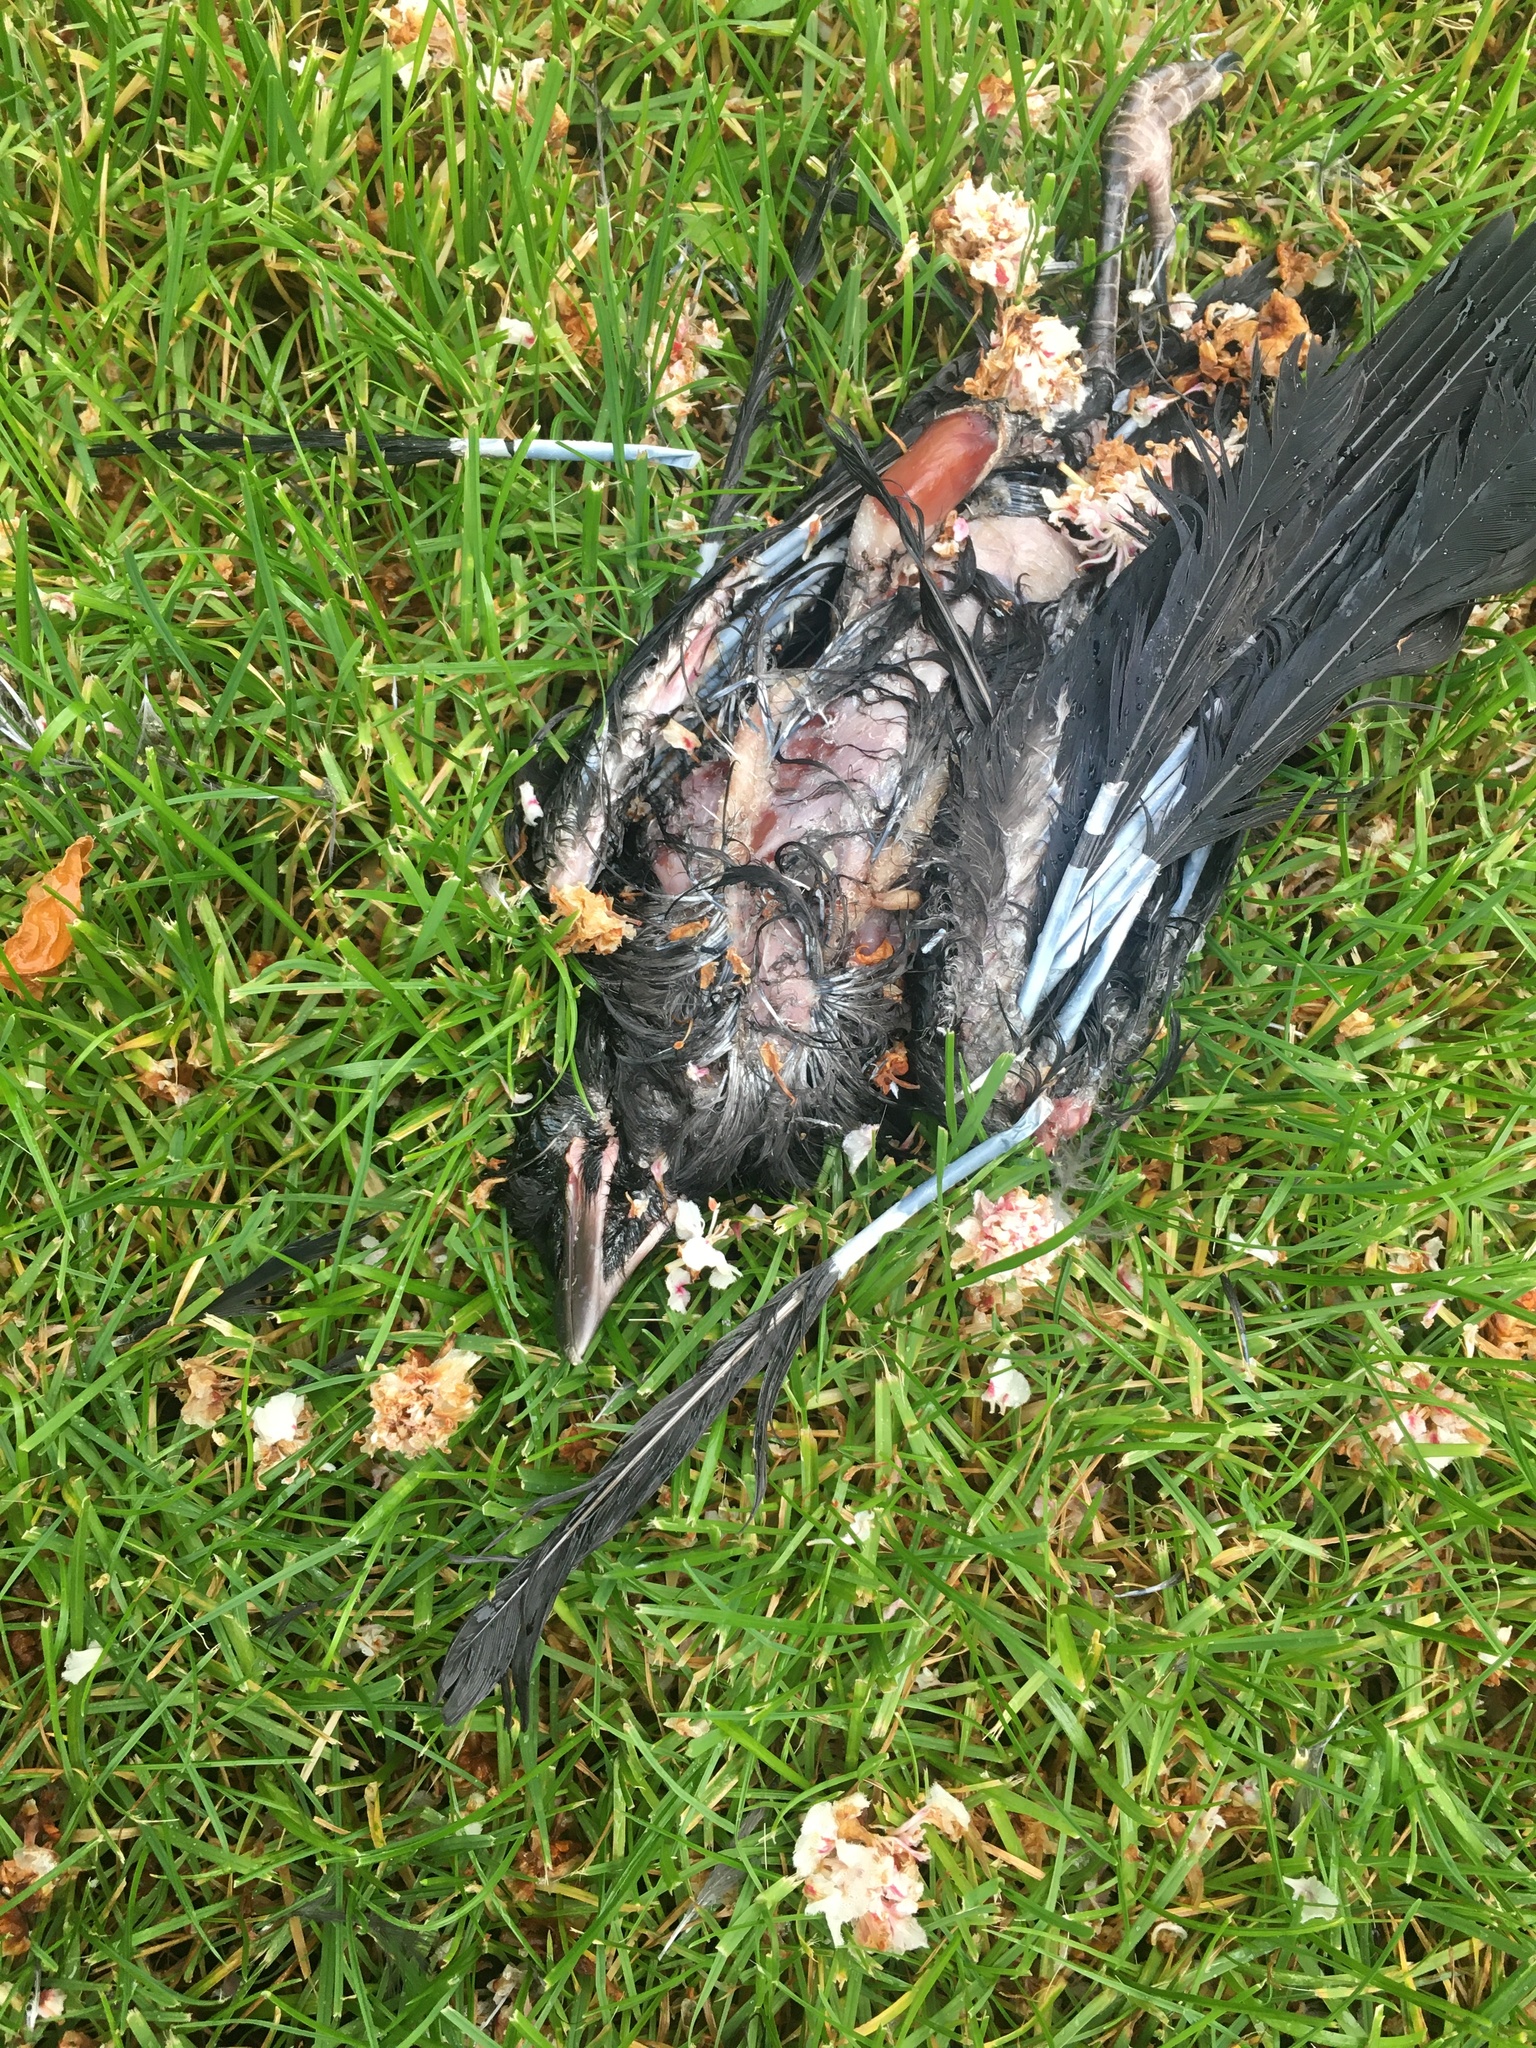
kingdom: Animalia
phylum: Chordata
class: Aves
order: Passeriformes
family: Corvidae
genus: Corvus
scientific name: Corvus brachyrhynchos
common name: American crow
